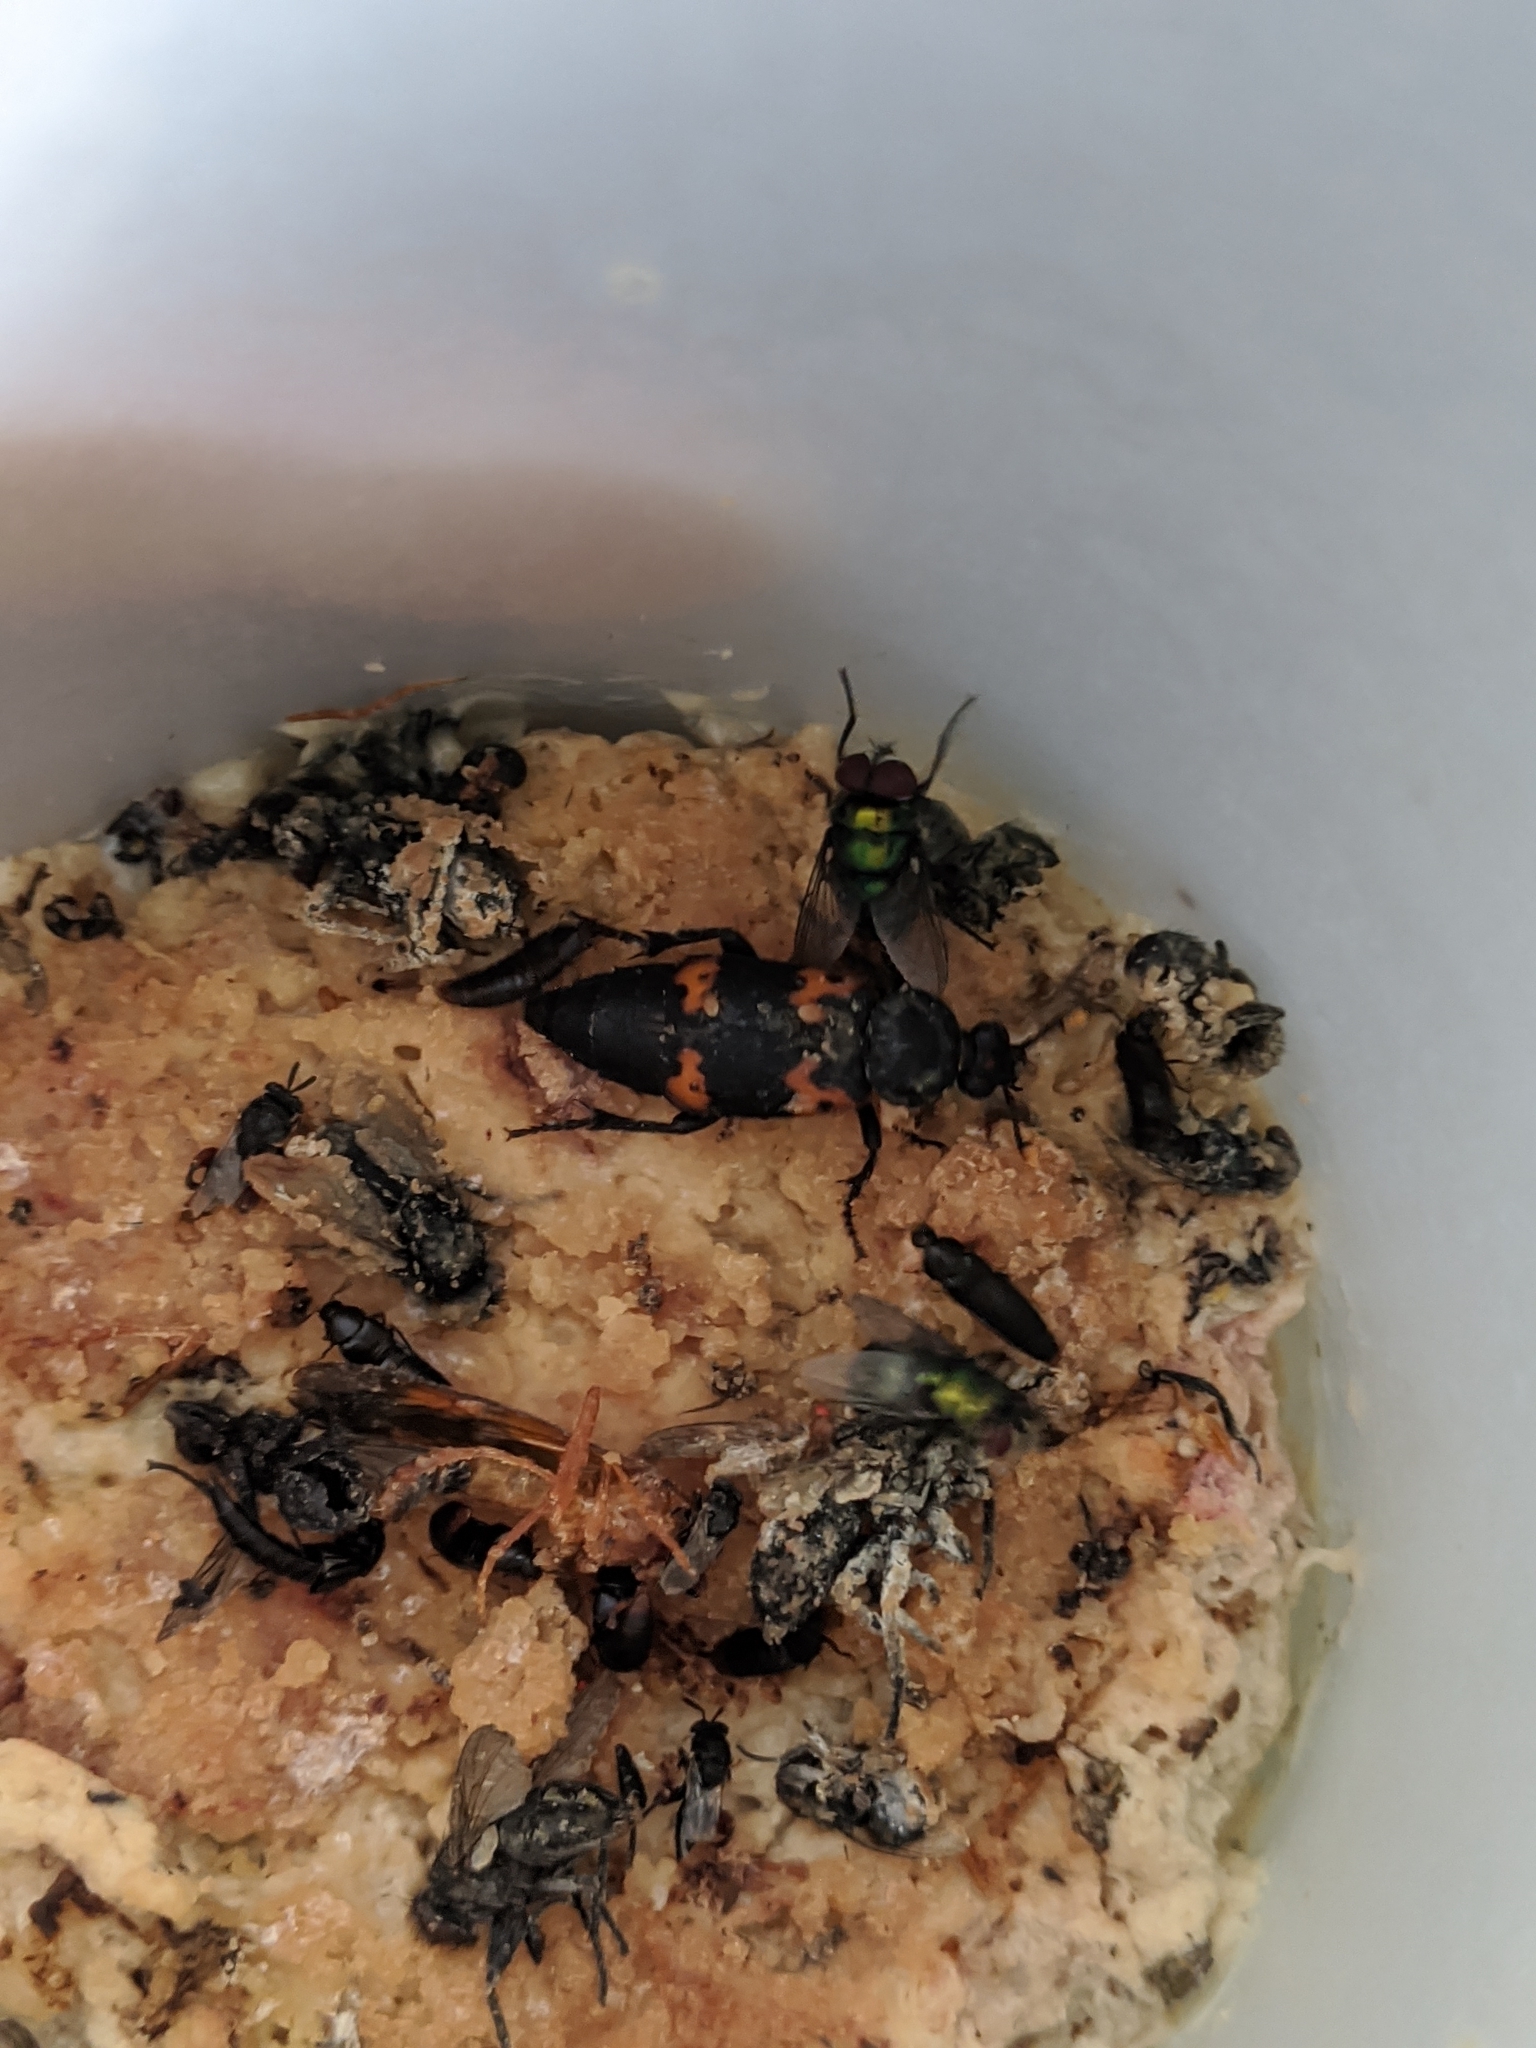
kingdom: Animalia
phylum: Arthropoda
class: Insecta
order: Coleoptera
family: Staphylinidae
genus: Nicrophorus
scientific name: Nicrophorus nepalensis
